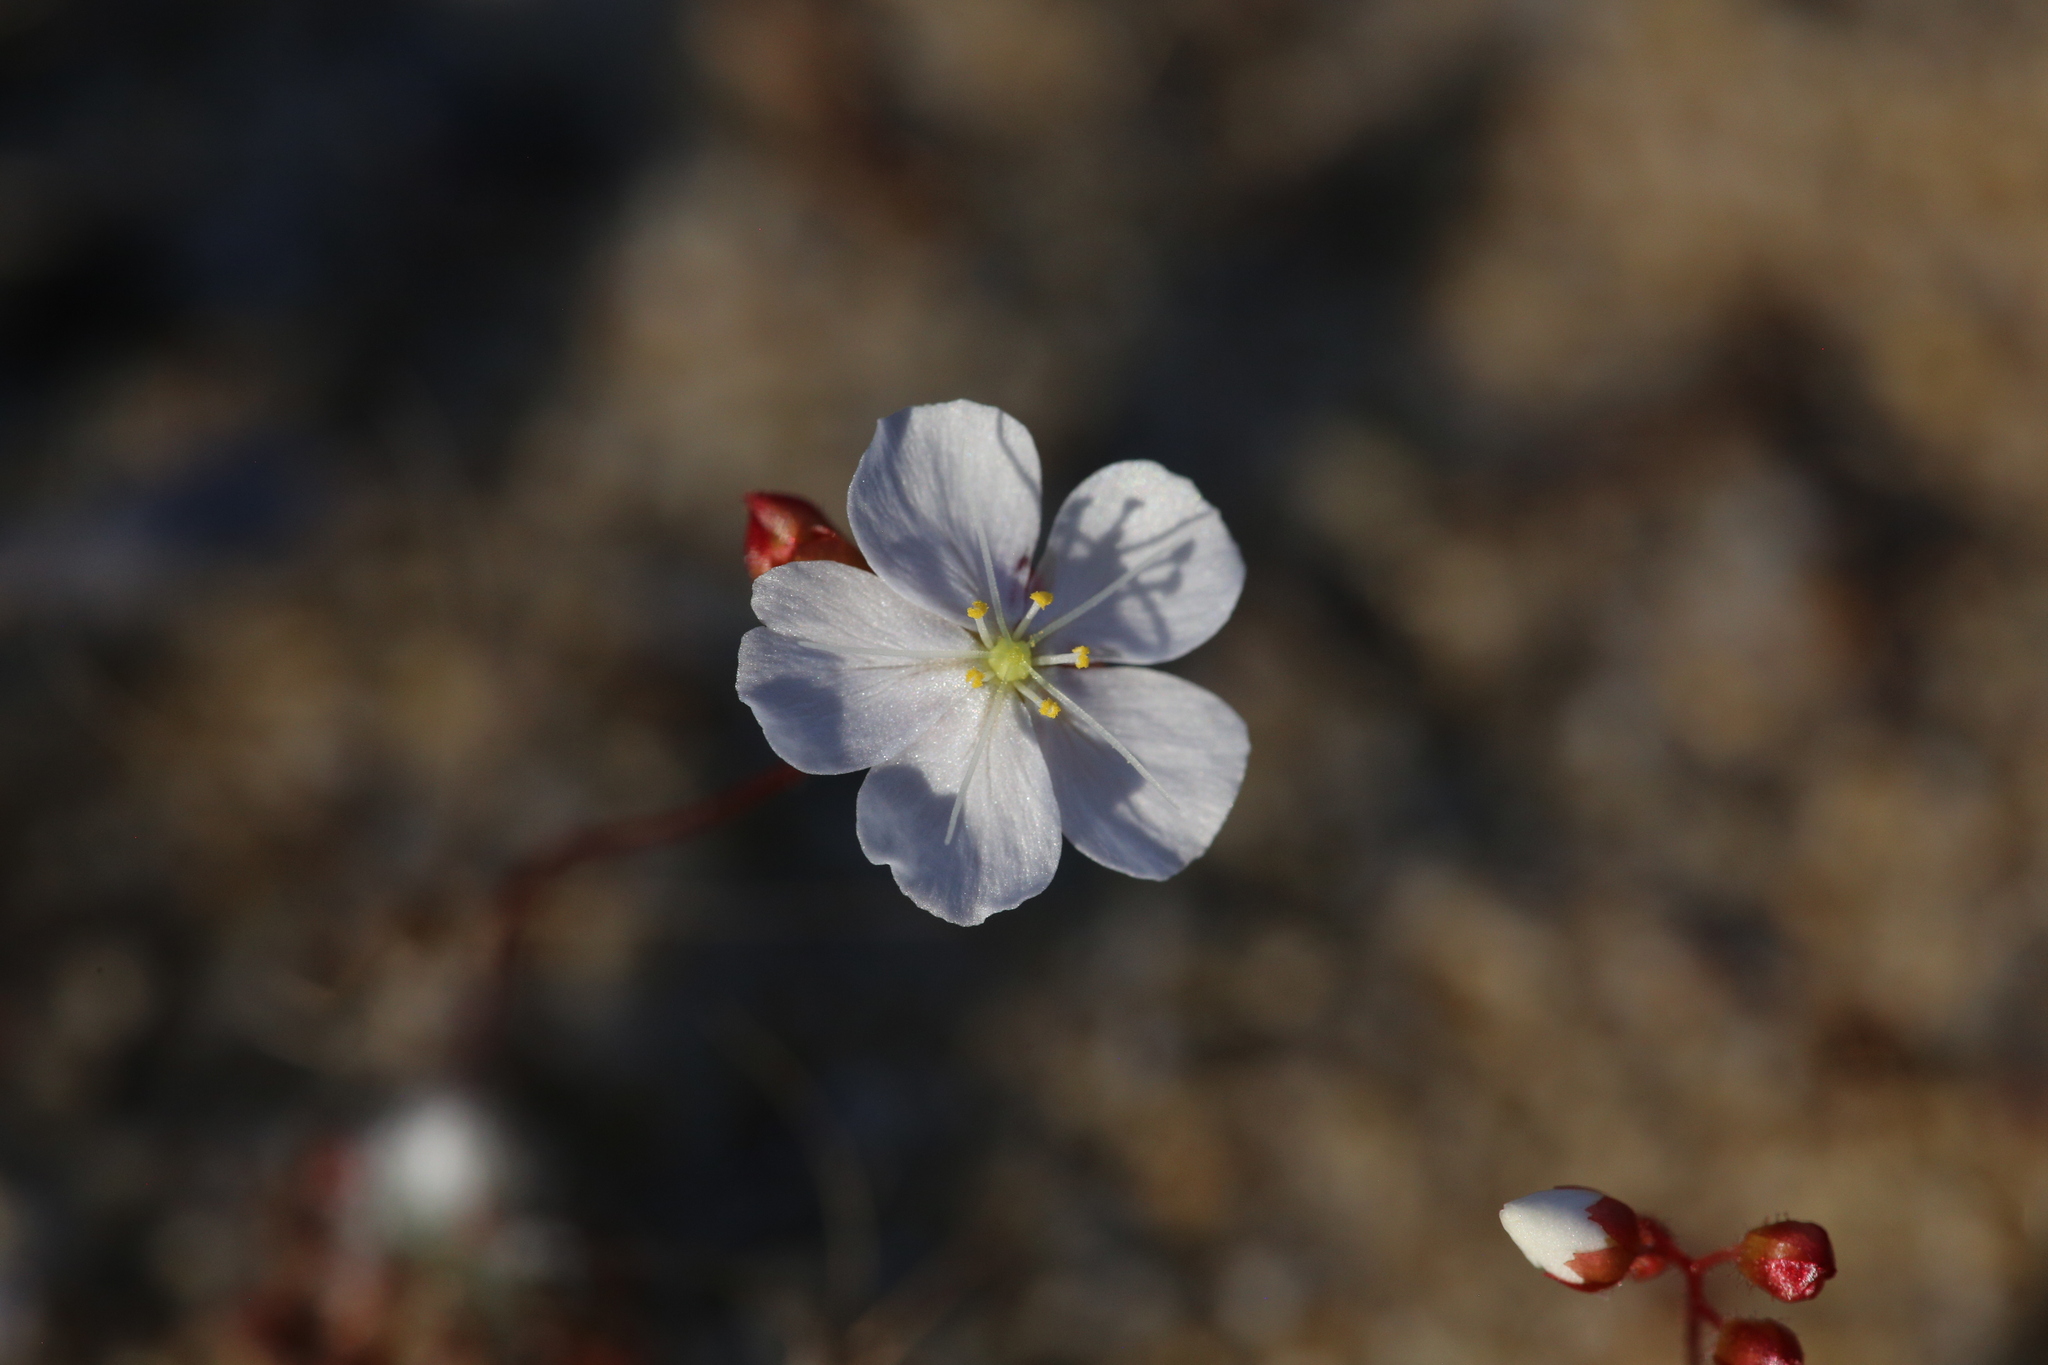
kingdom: Plantae
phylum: Tracheophyta
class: Magnoliopsida
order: Caryophyllales
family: Droseraceae
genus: Drosera
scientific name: Drosera citrina
